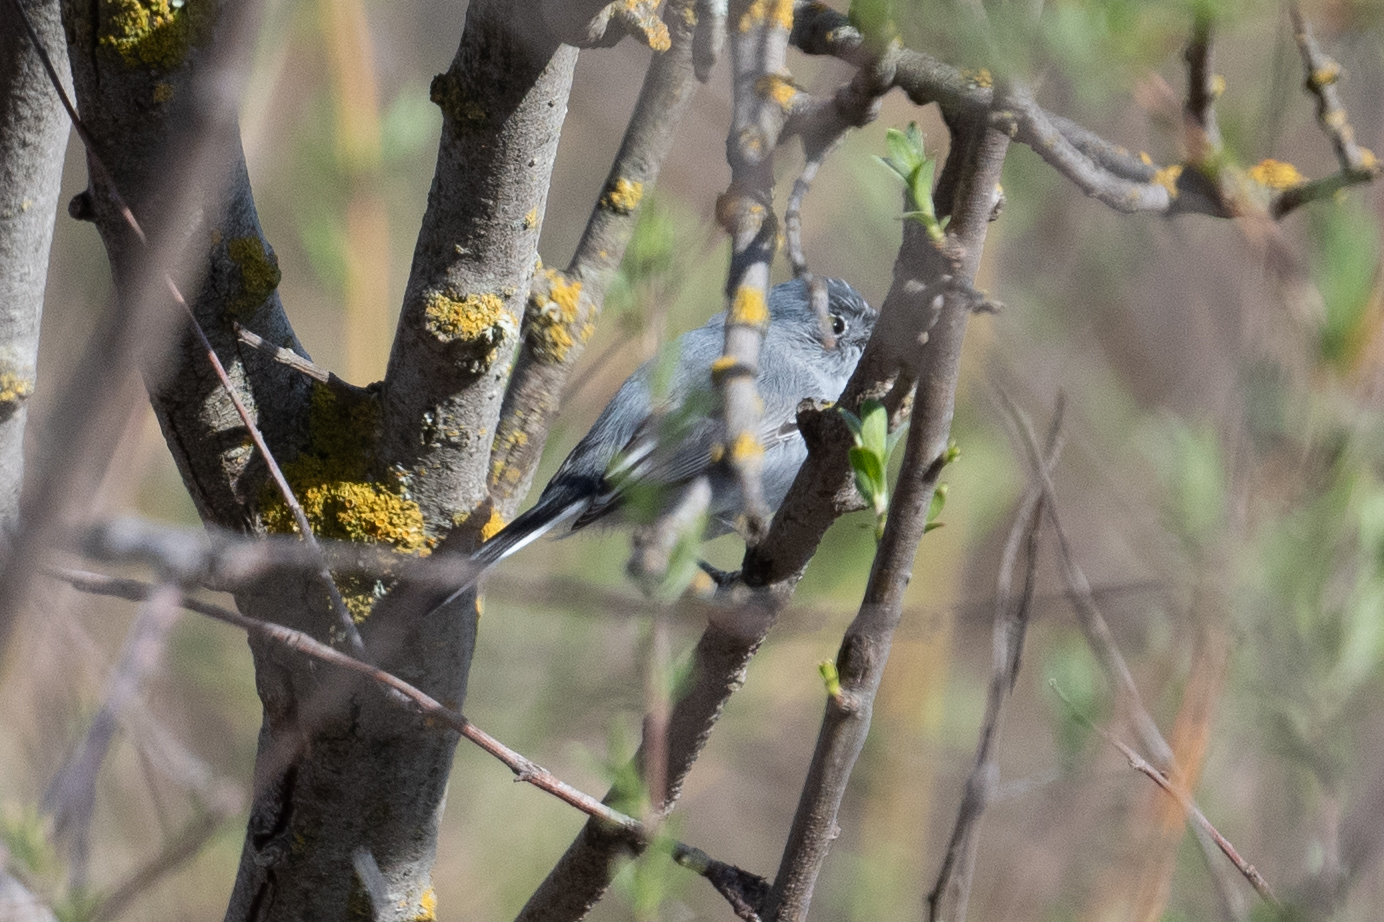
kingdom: Animalia
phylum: Chordata
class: Aves
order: Passeriformes
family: Polioptilidae
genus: Polioptila
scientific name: Polioptila caerulea
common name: Blue-gray gnatcatcher
